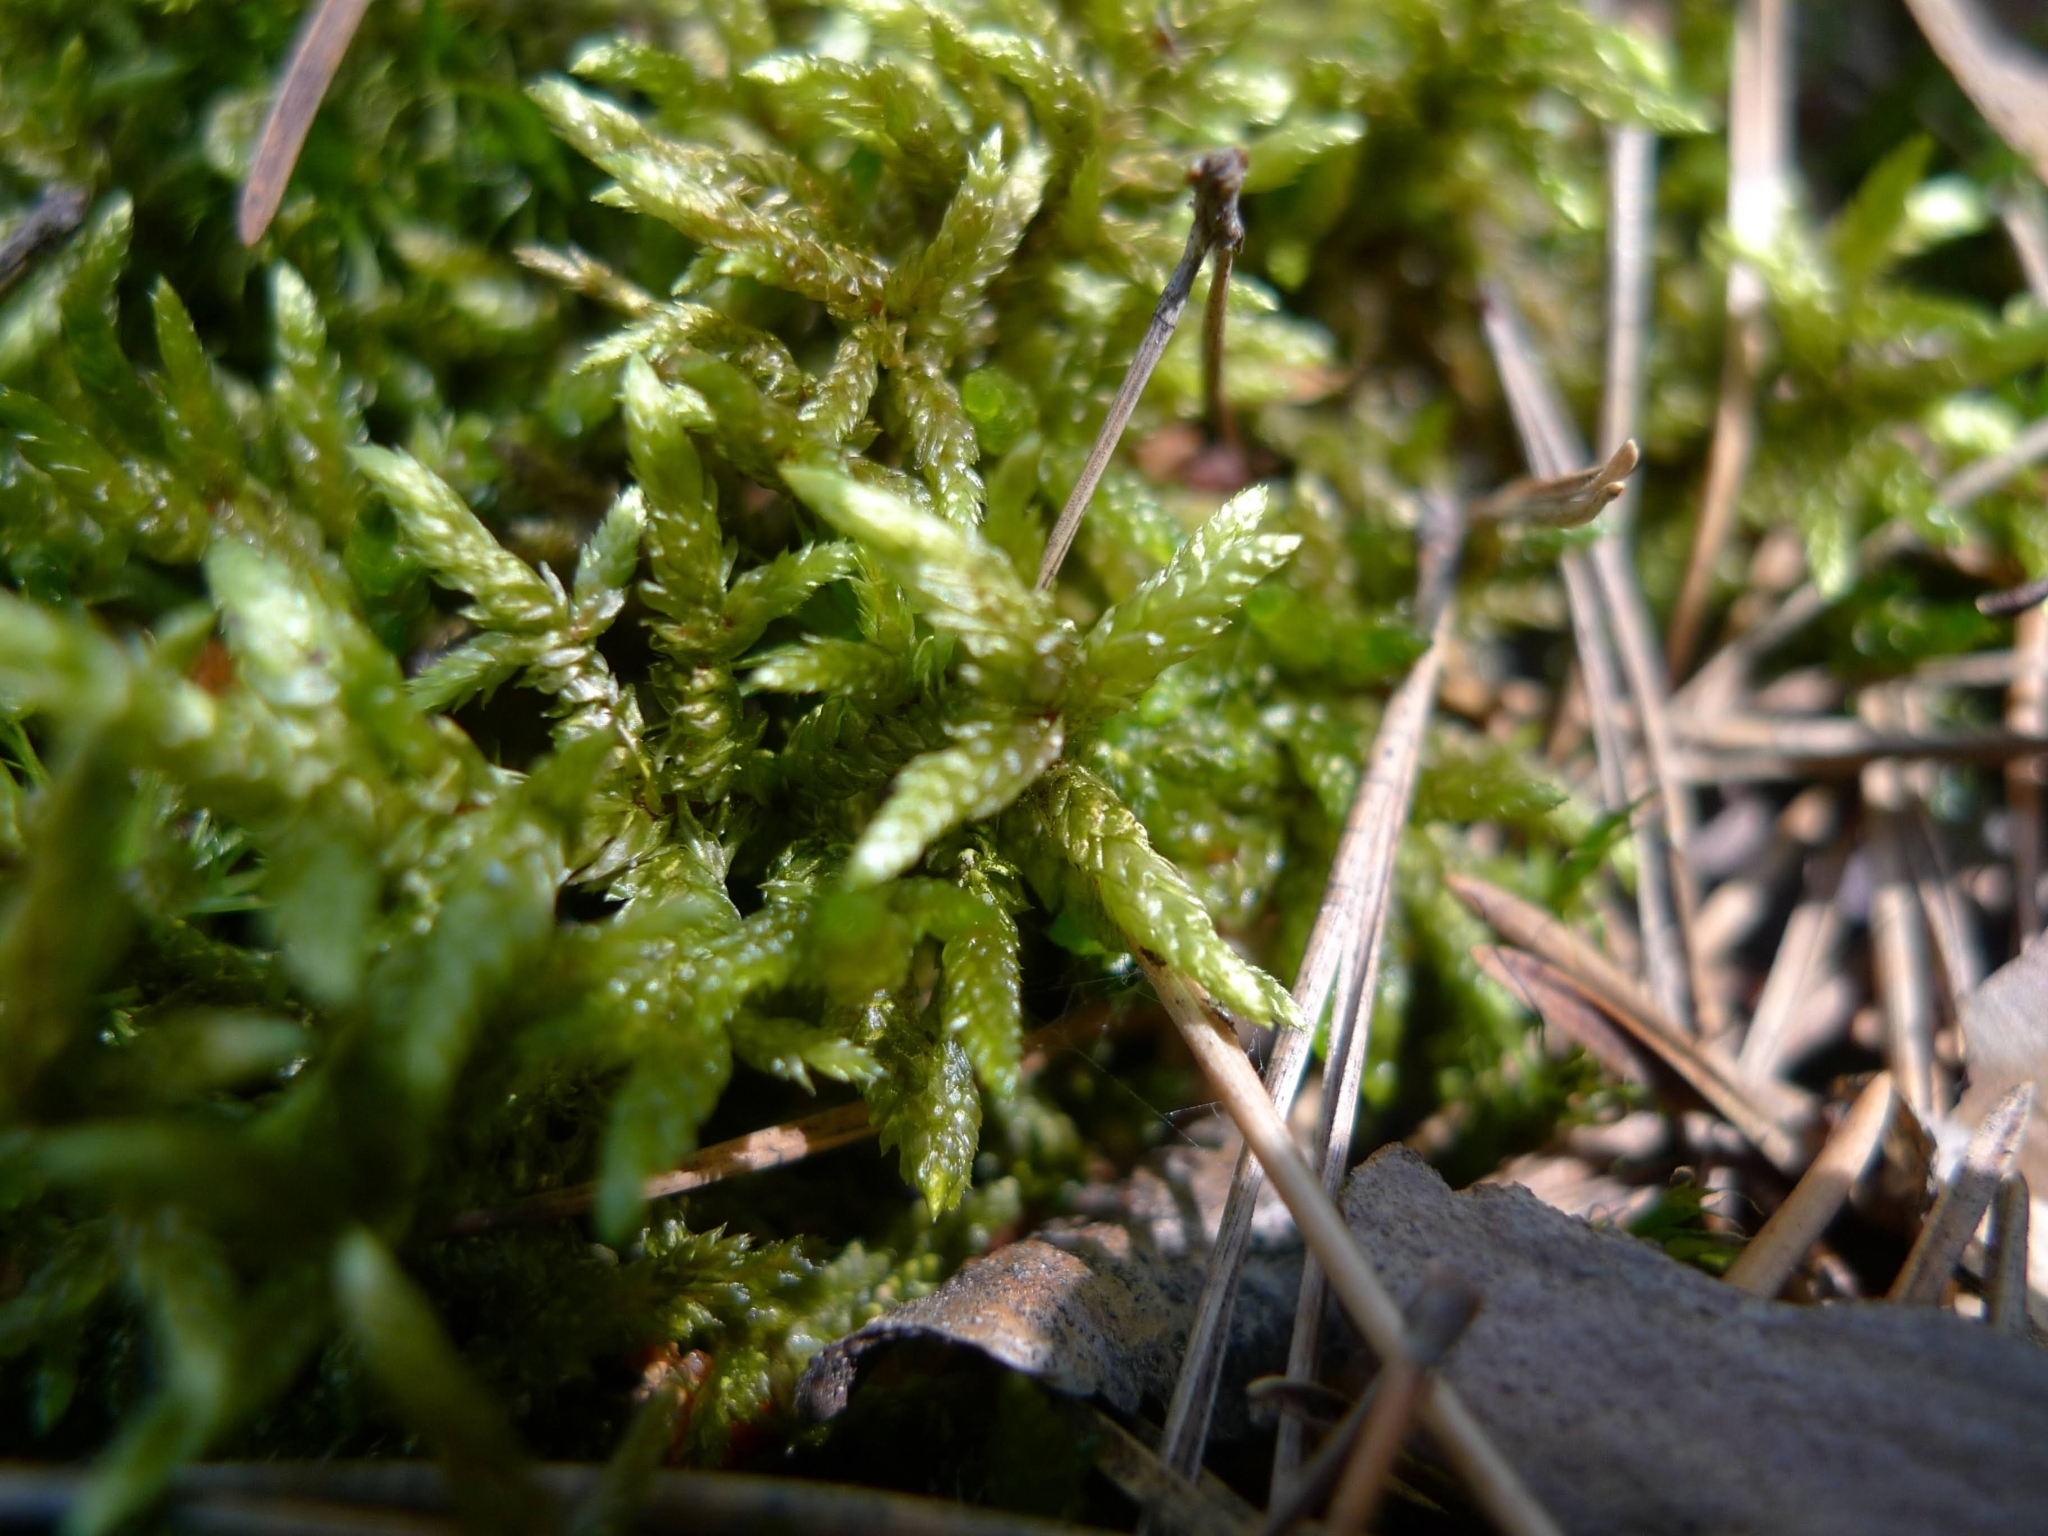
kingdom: Plantae
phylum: Bryophyta
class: Bryopsida
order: Hypnales
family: Hylocomiaceae
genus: Pleurozium
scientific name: Pleurozium schreberi
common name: Red-stemmed feather moss
